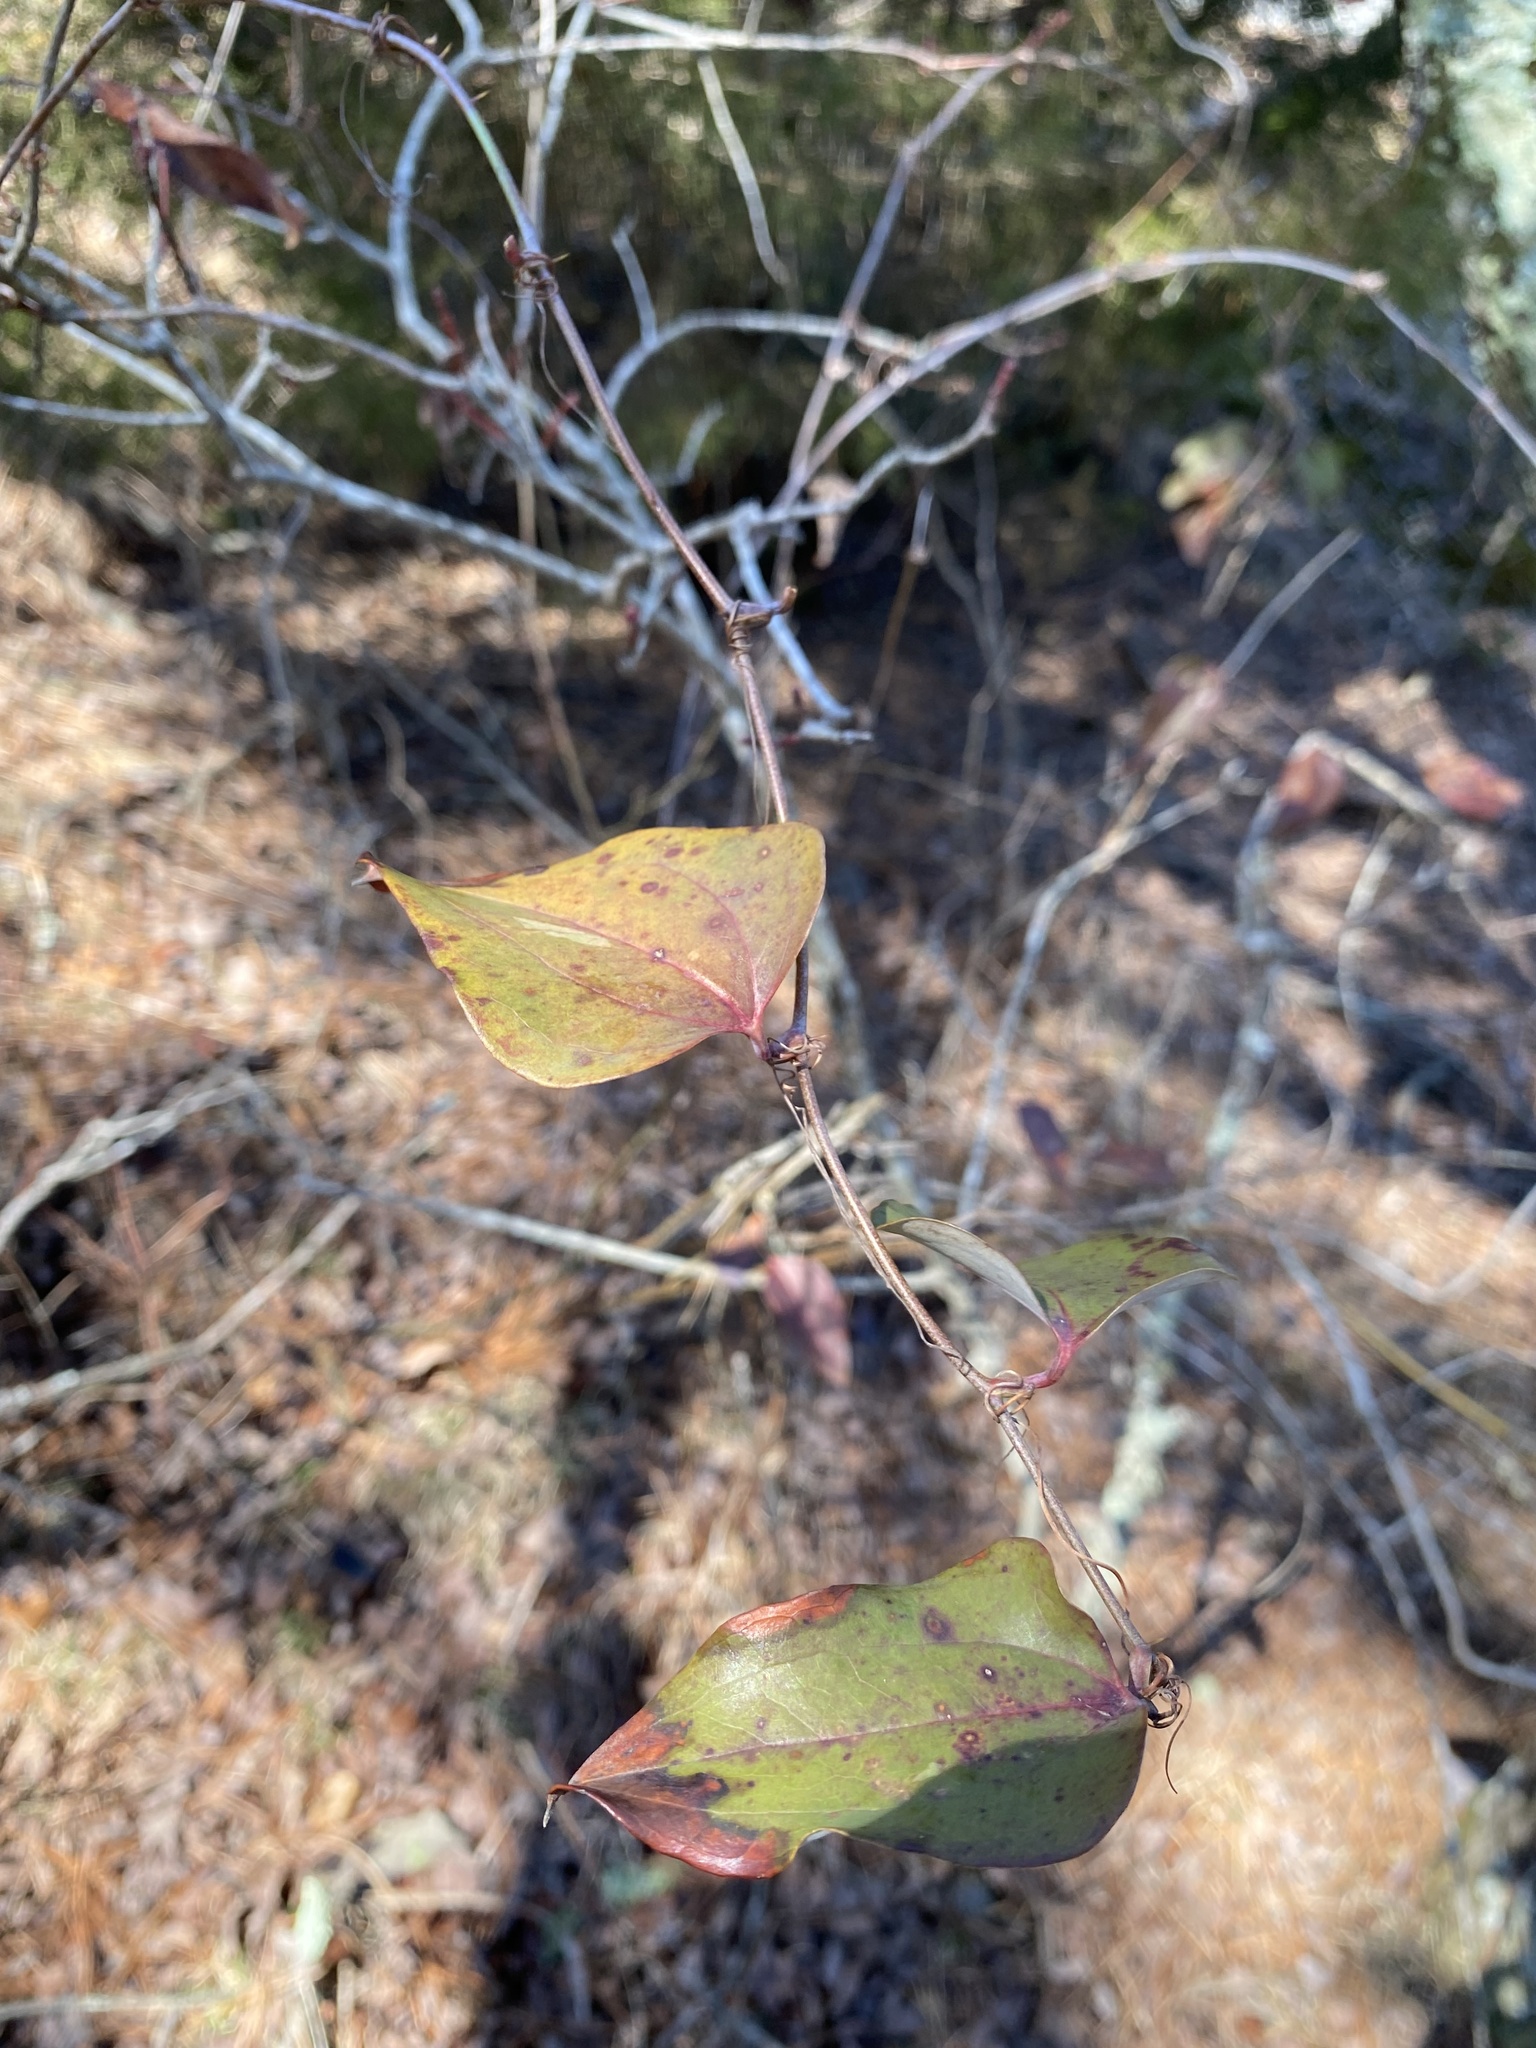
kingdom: Plantae
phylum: Tracheophyta
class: Liliopsida
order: Liliales
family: Smilacaceae
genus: Smilax
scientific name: Smilax glauca
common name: Cat greenbrier
